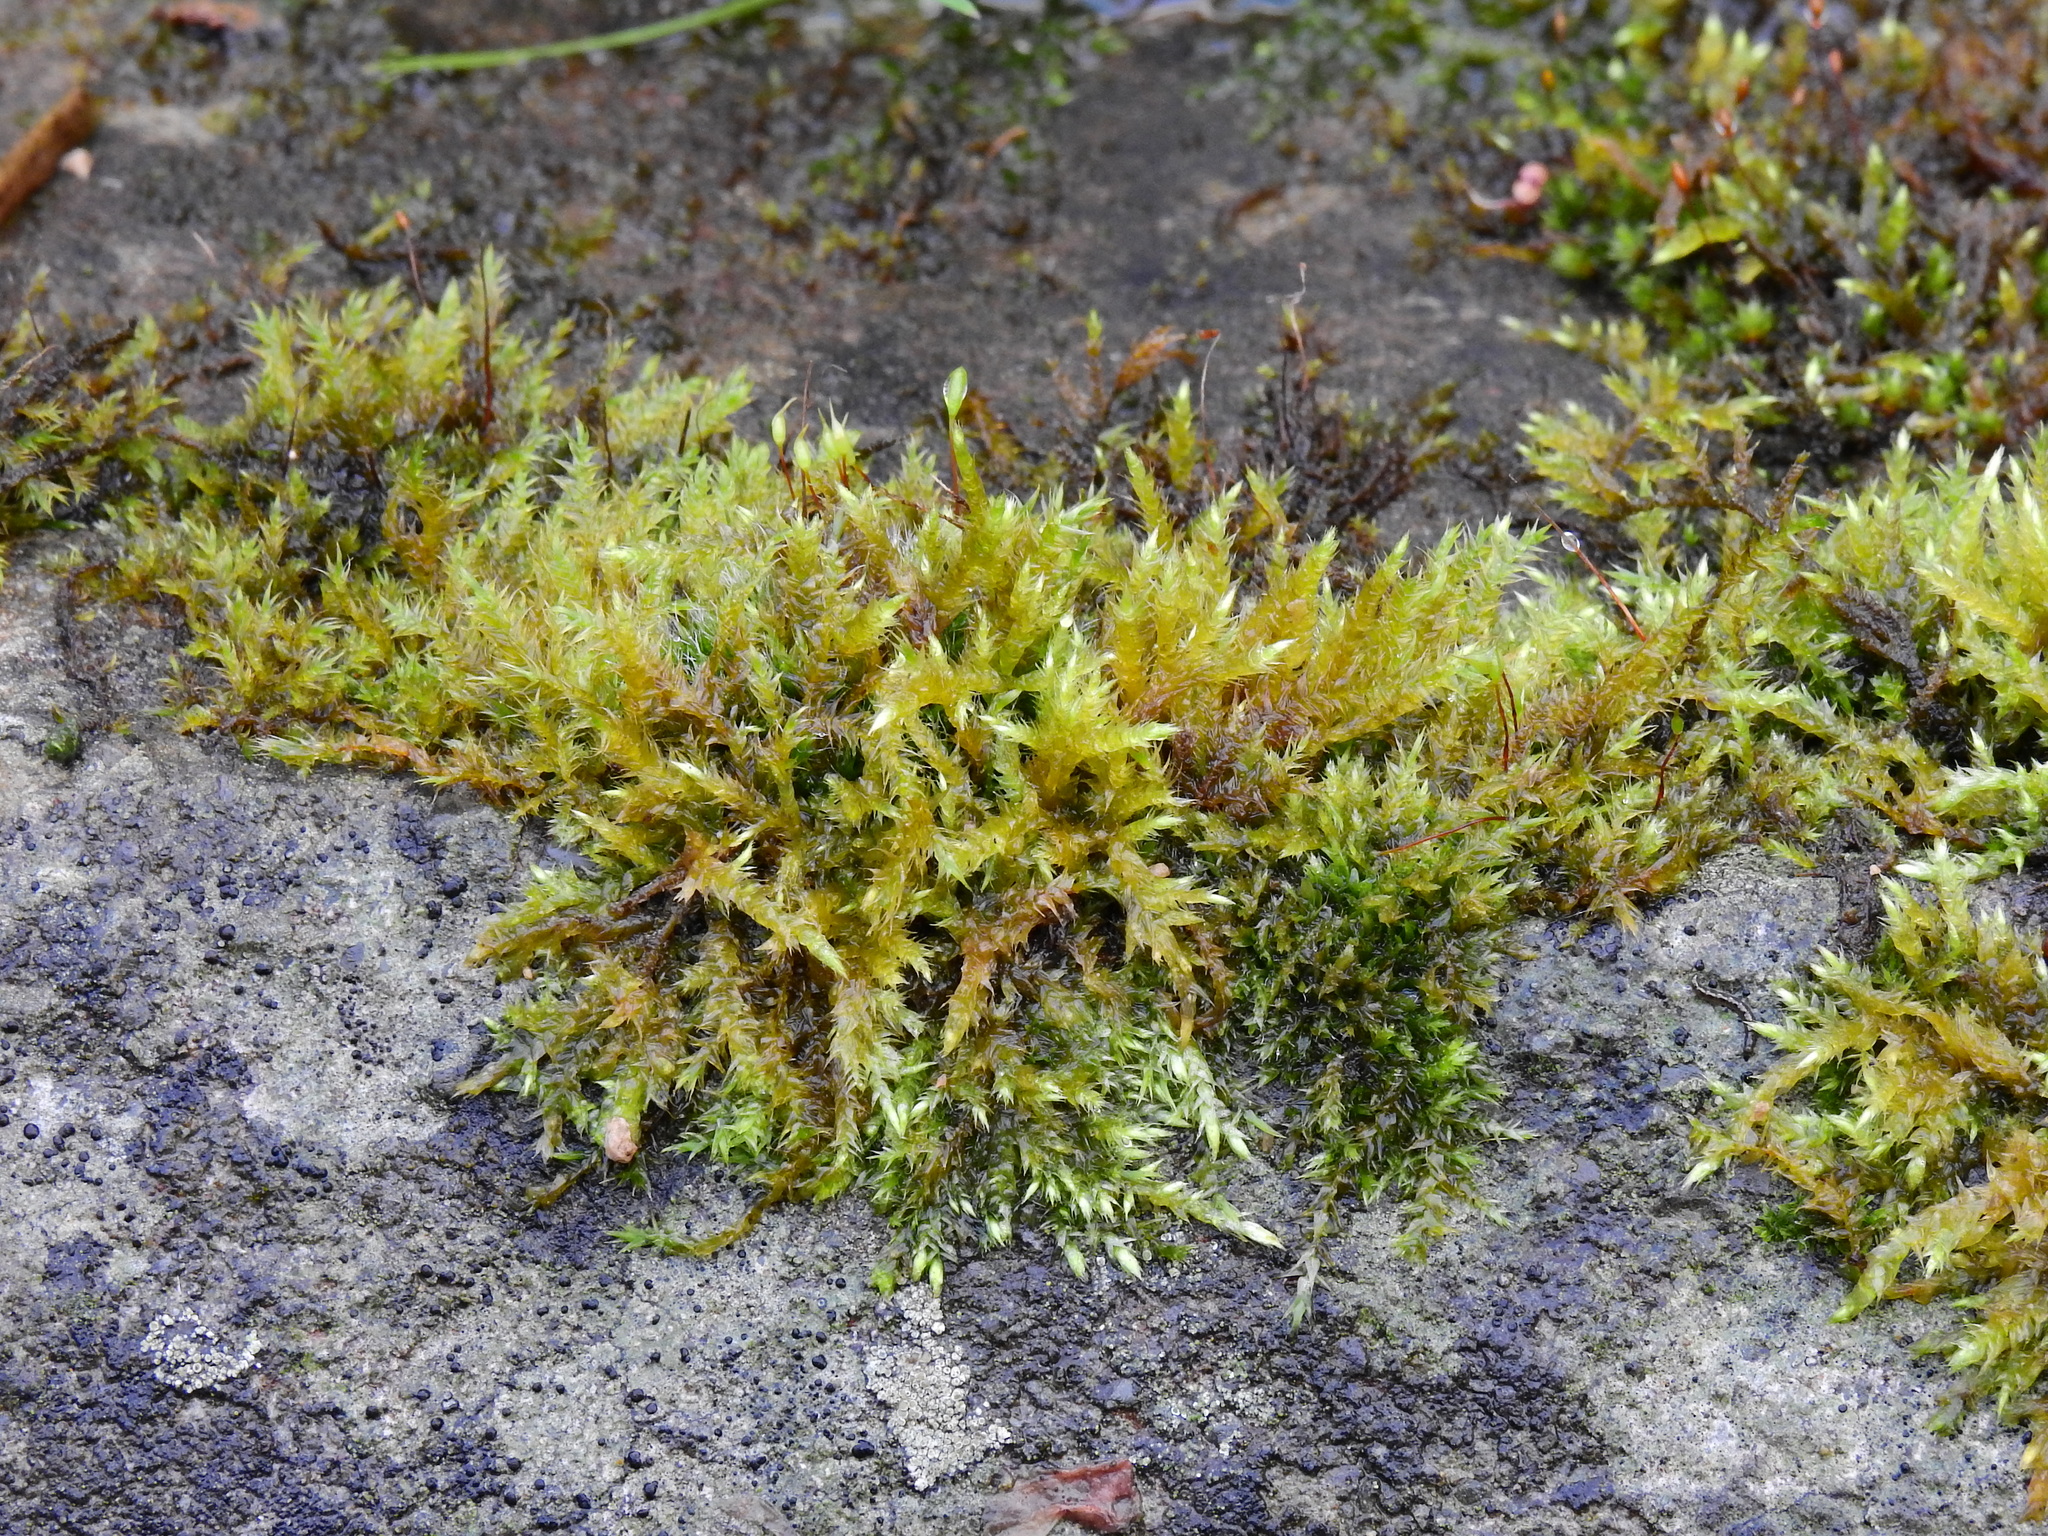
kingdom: Plantae
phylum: Bryophyta
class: Bryopsida
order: Hypnales
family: Amblystegiaceae
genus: Leptodictyum
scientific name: Leptodictyum riparium
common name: Riparian feather moss
